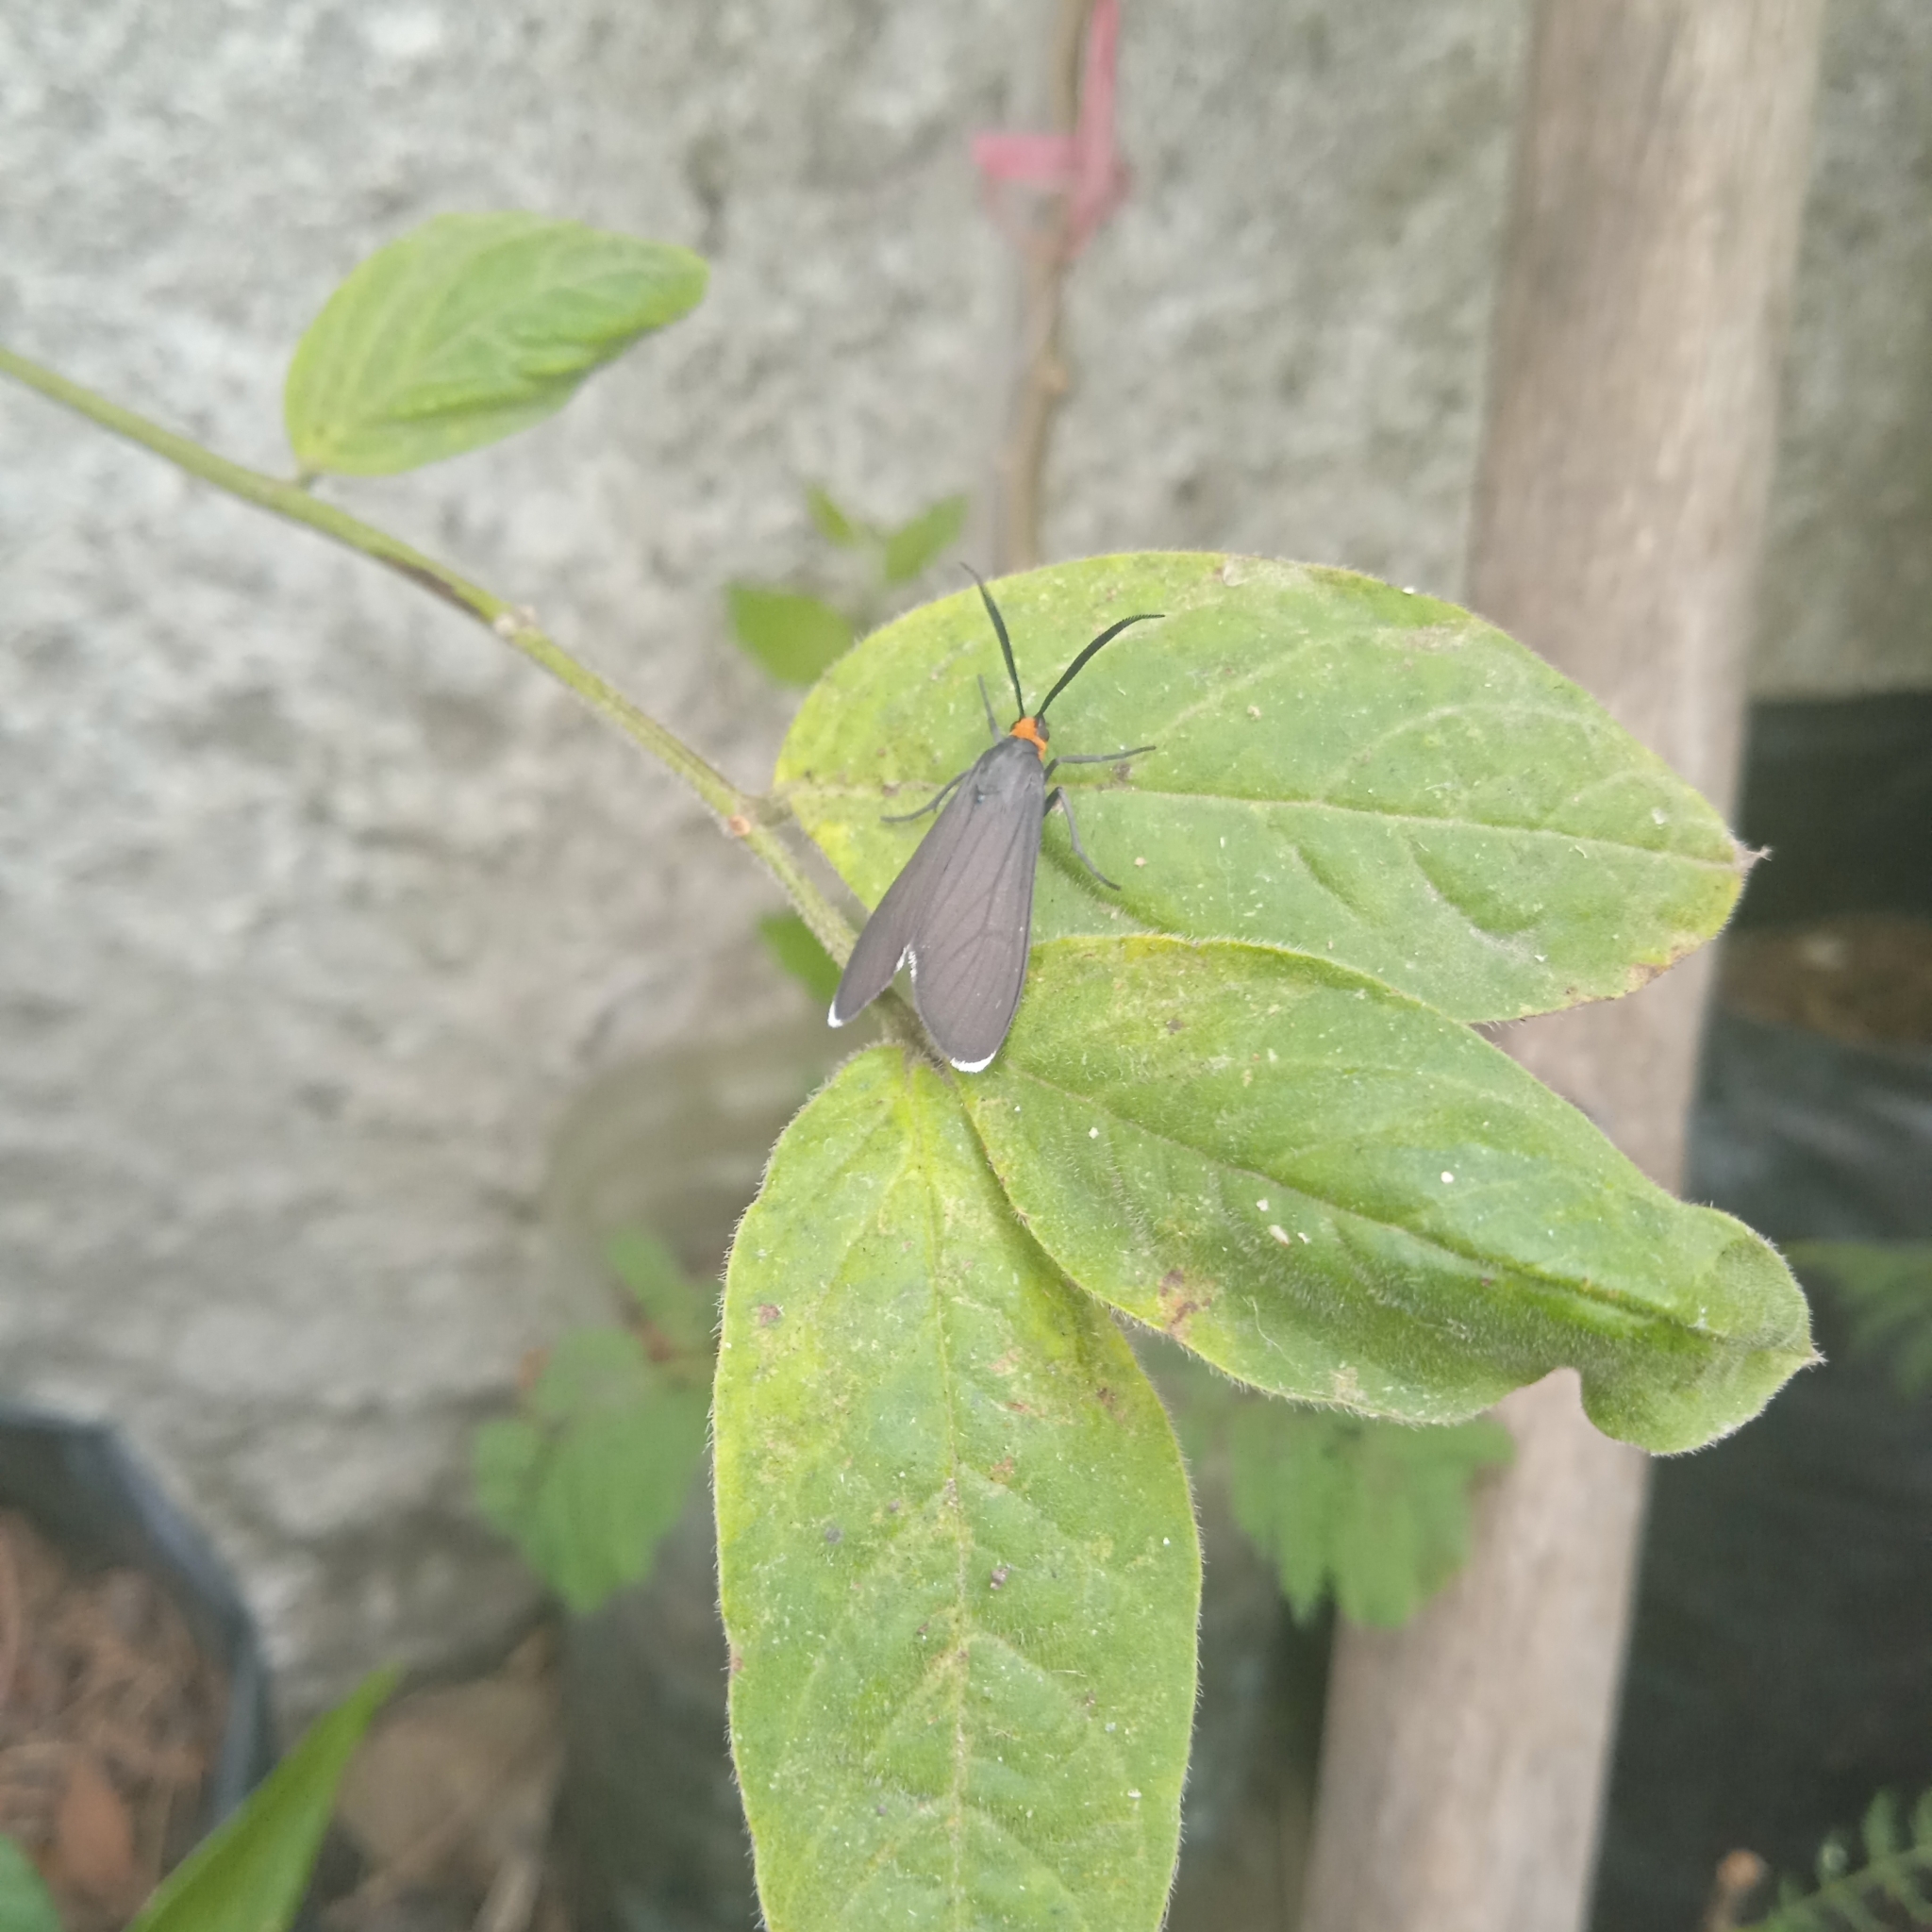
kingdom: Animalia
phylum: Arthropoda
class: Insecta
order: Lepidoptera
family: Erebidae
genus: Ctenucha
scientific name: Ctenucha rubriceps
